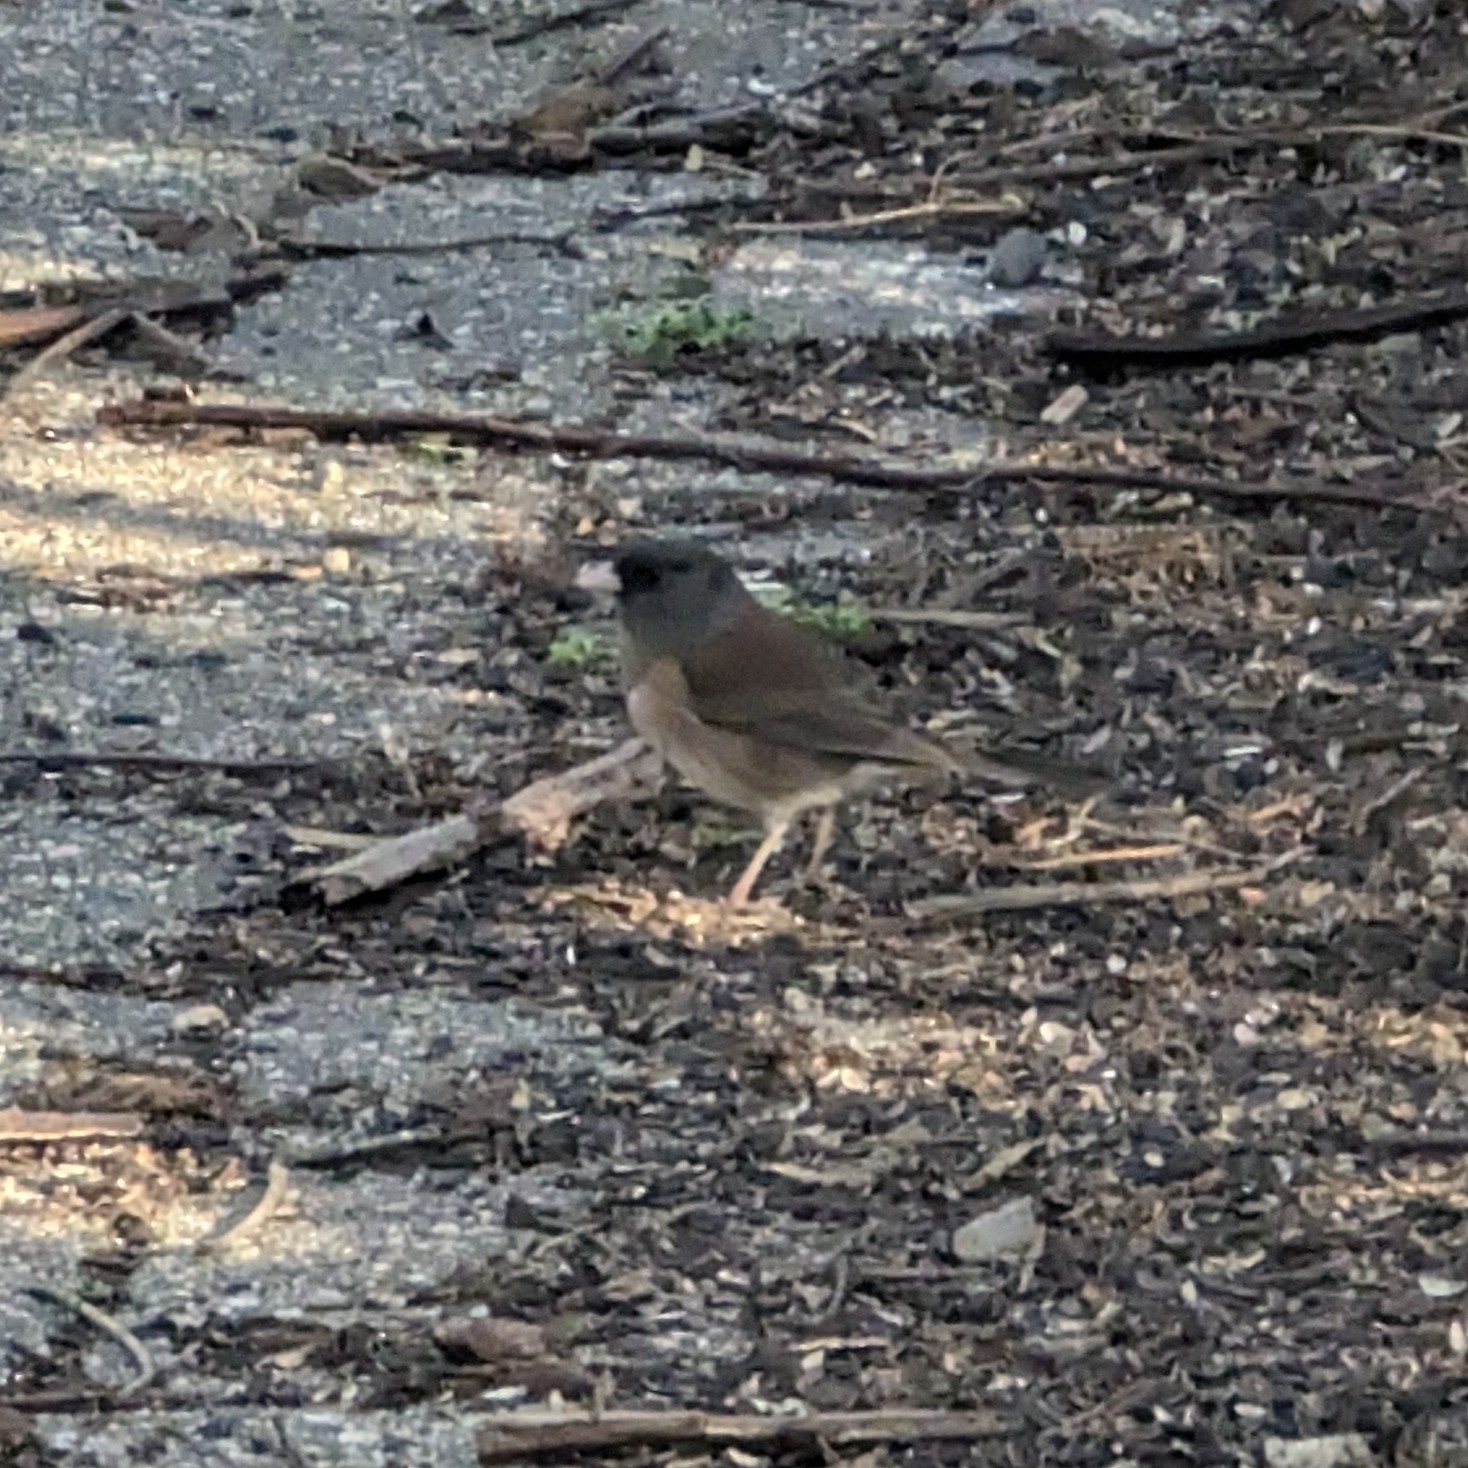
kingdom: Animalia
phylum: Chordata
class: Aves
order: Passeriformes
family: Passerellidae
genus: Junco
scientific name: Junco hyemalis
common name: Dark-eyed junco
